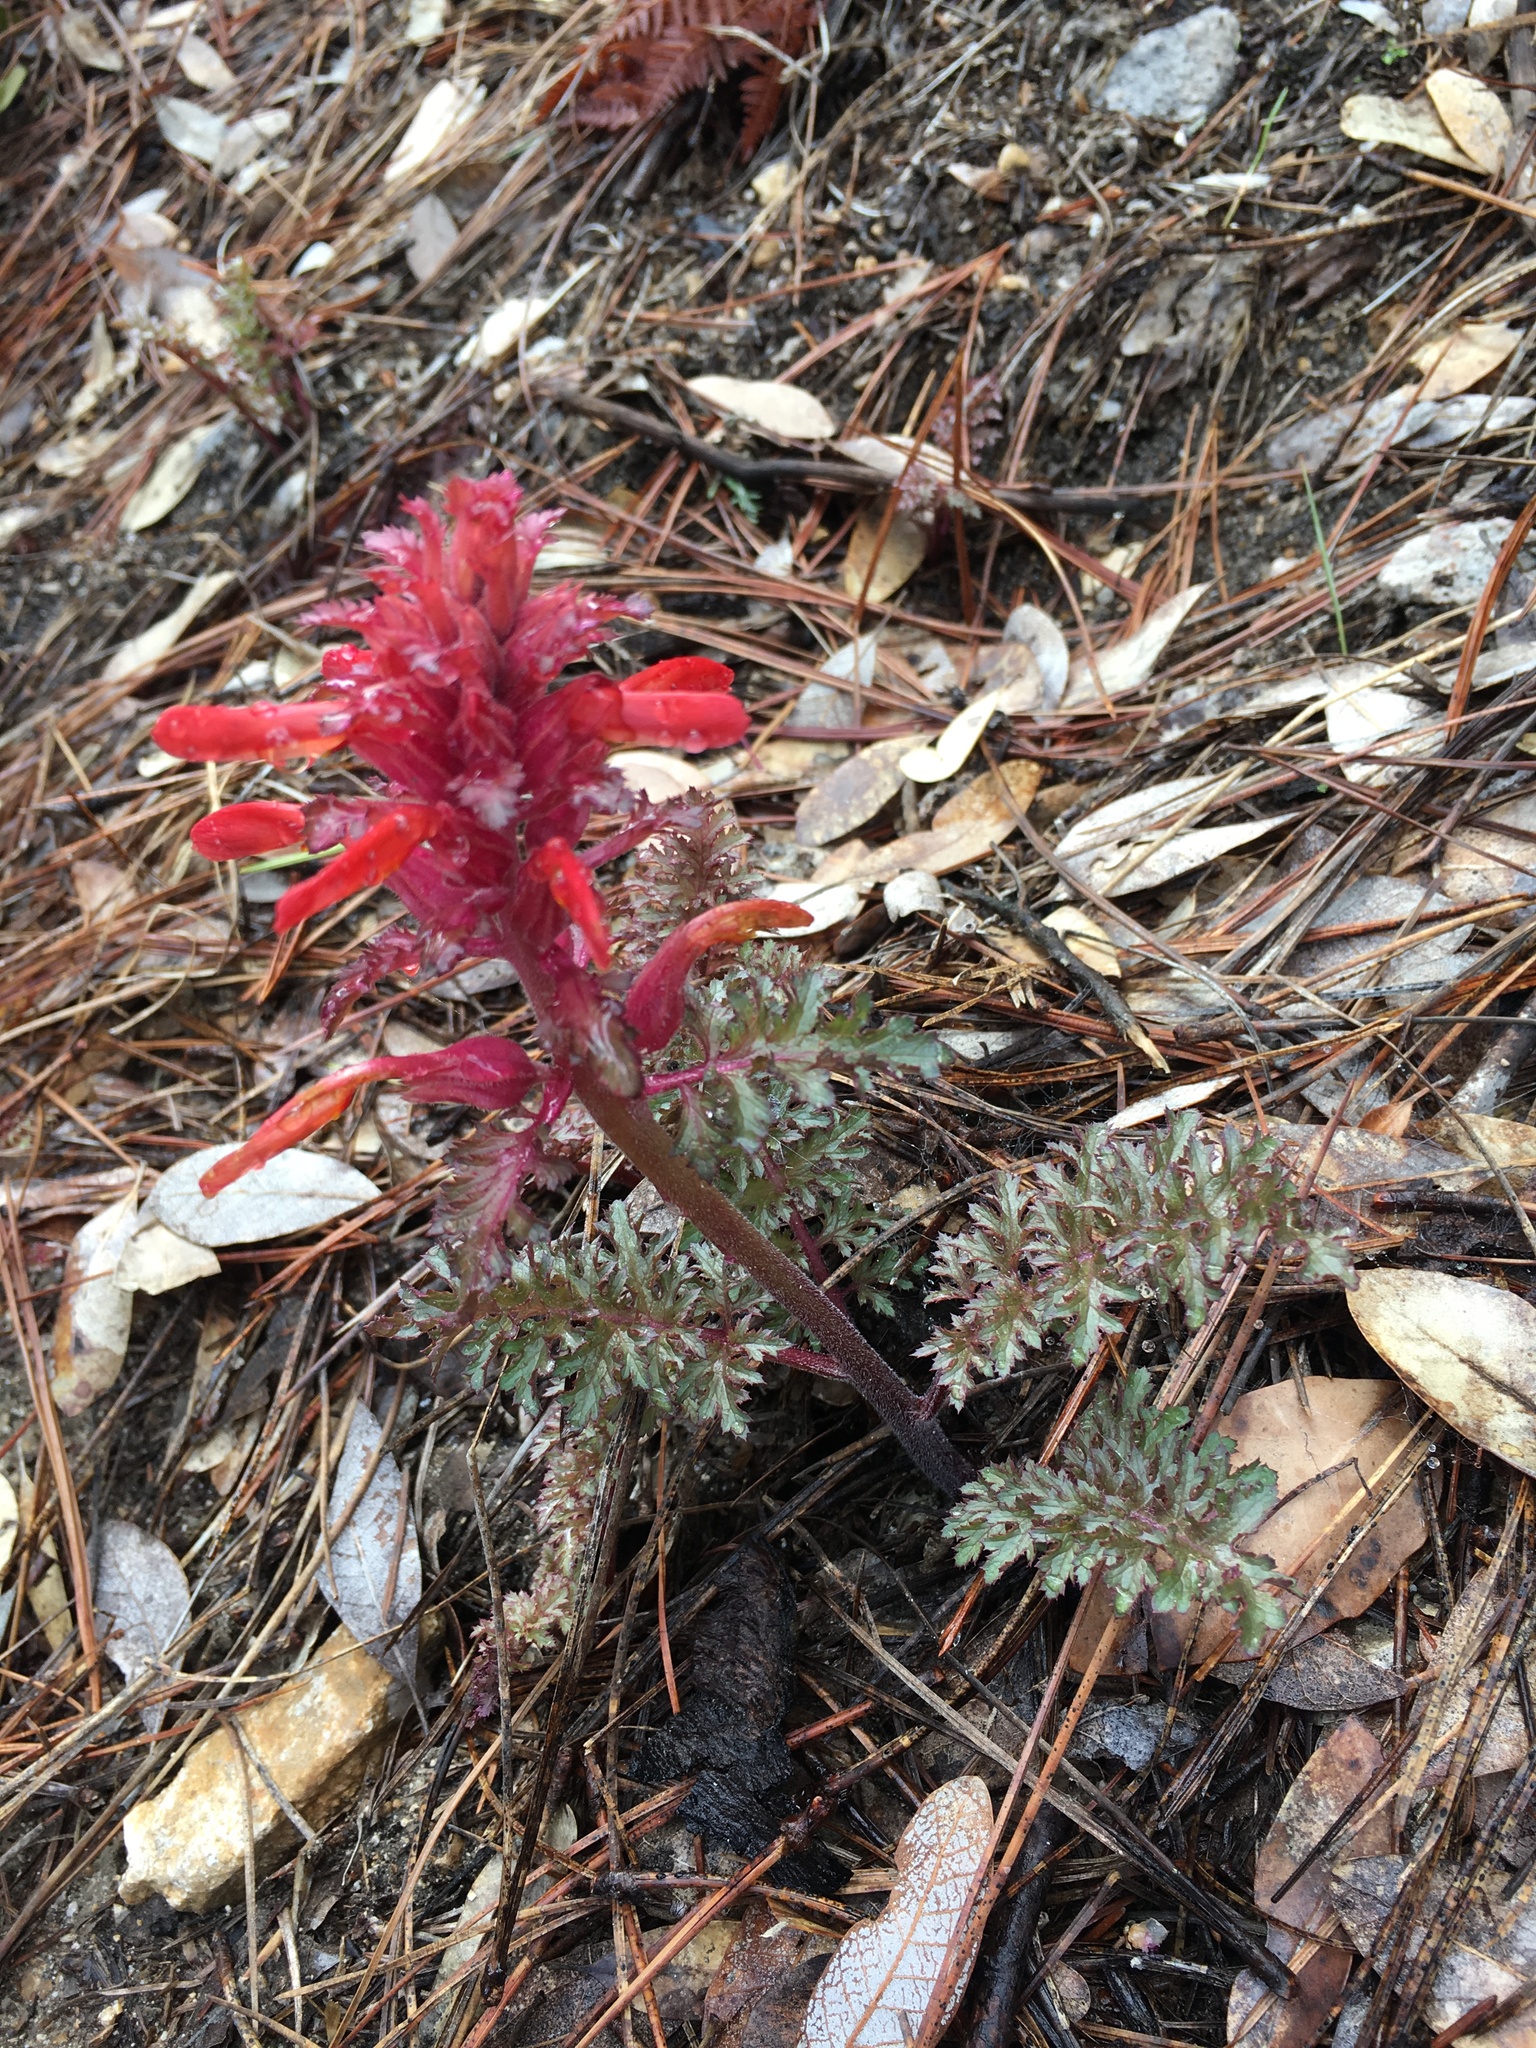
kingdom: Plantae
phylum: Tracheophyta
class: Magnoliopsida
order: Lamiales
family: Orobanchaceae
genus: Pedicularis
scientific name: Pedicularis densiflora
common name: Indian warrior
